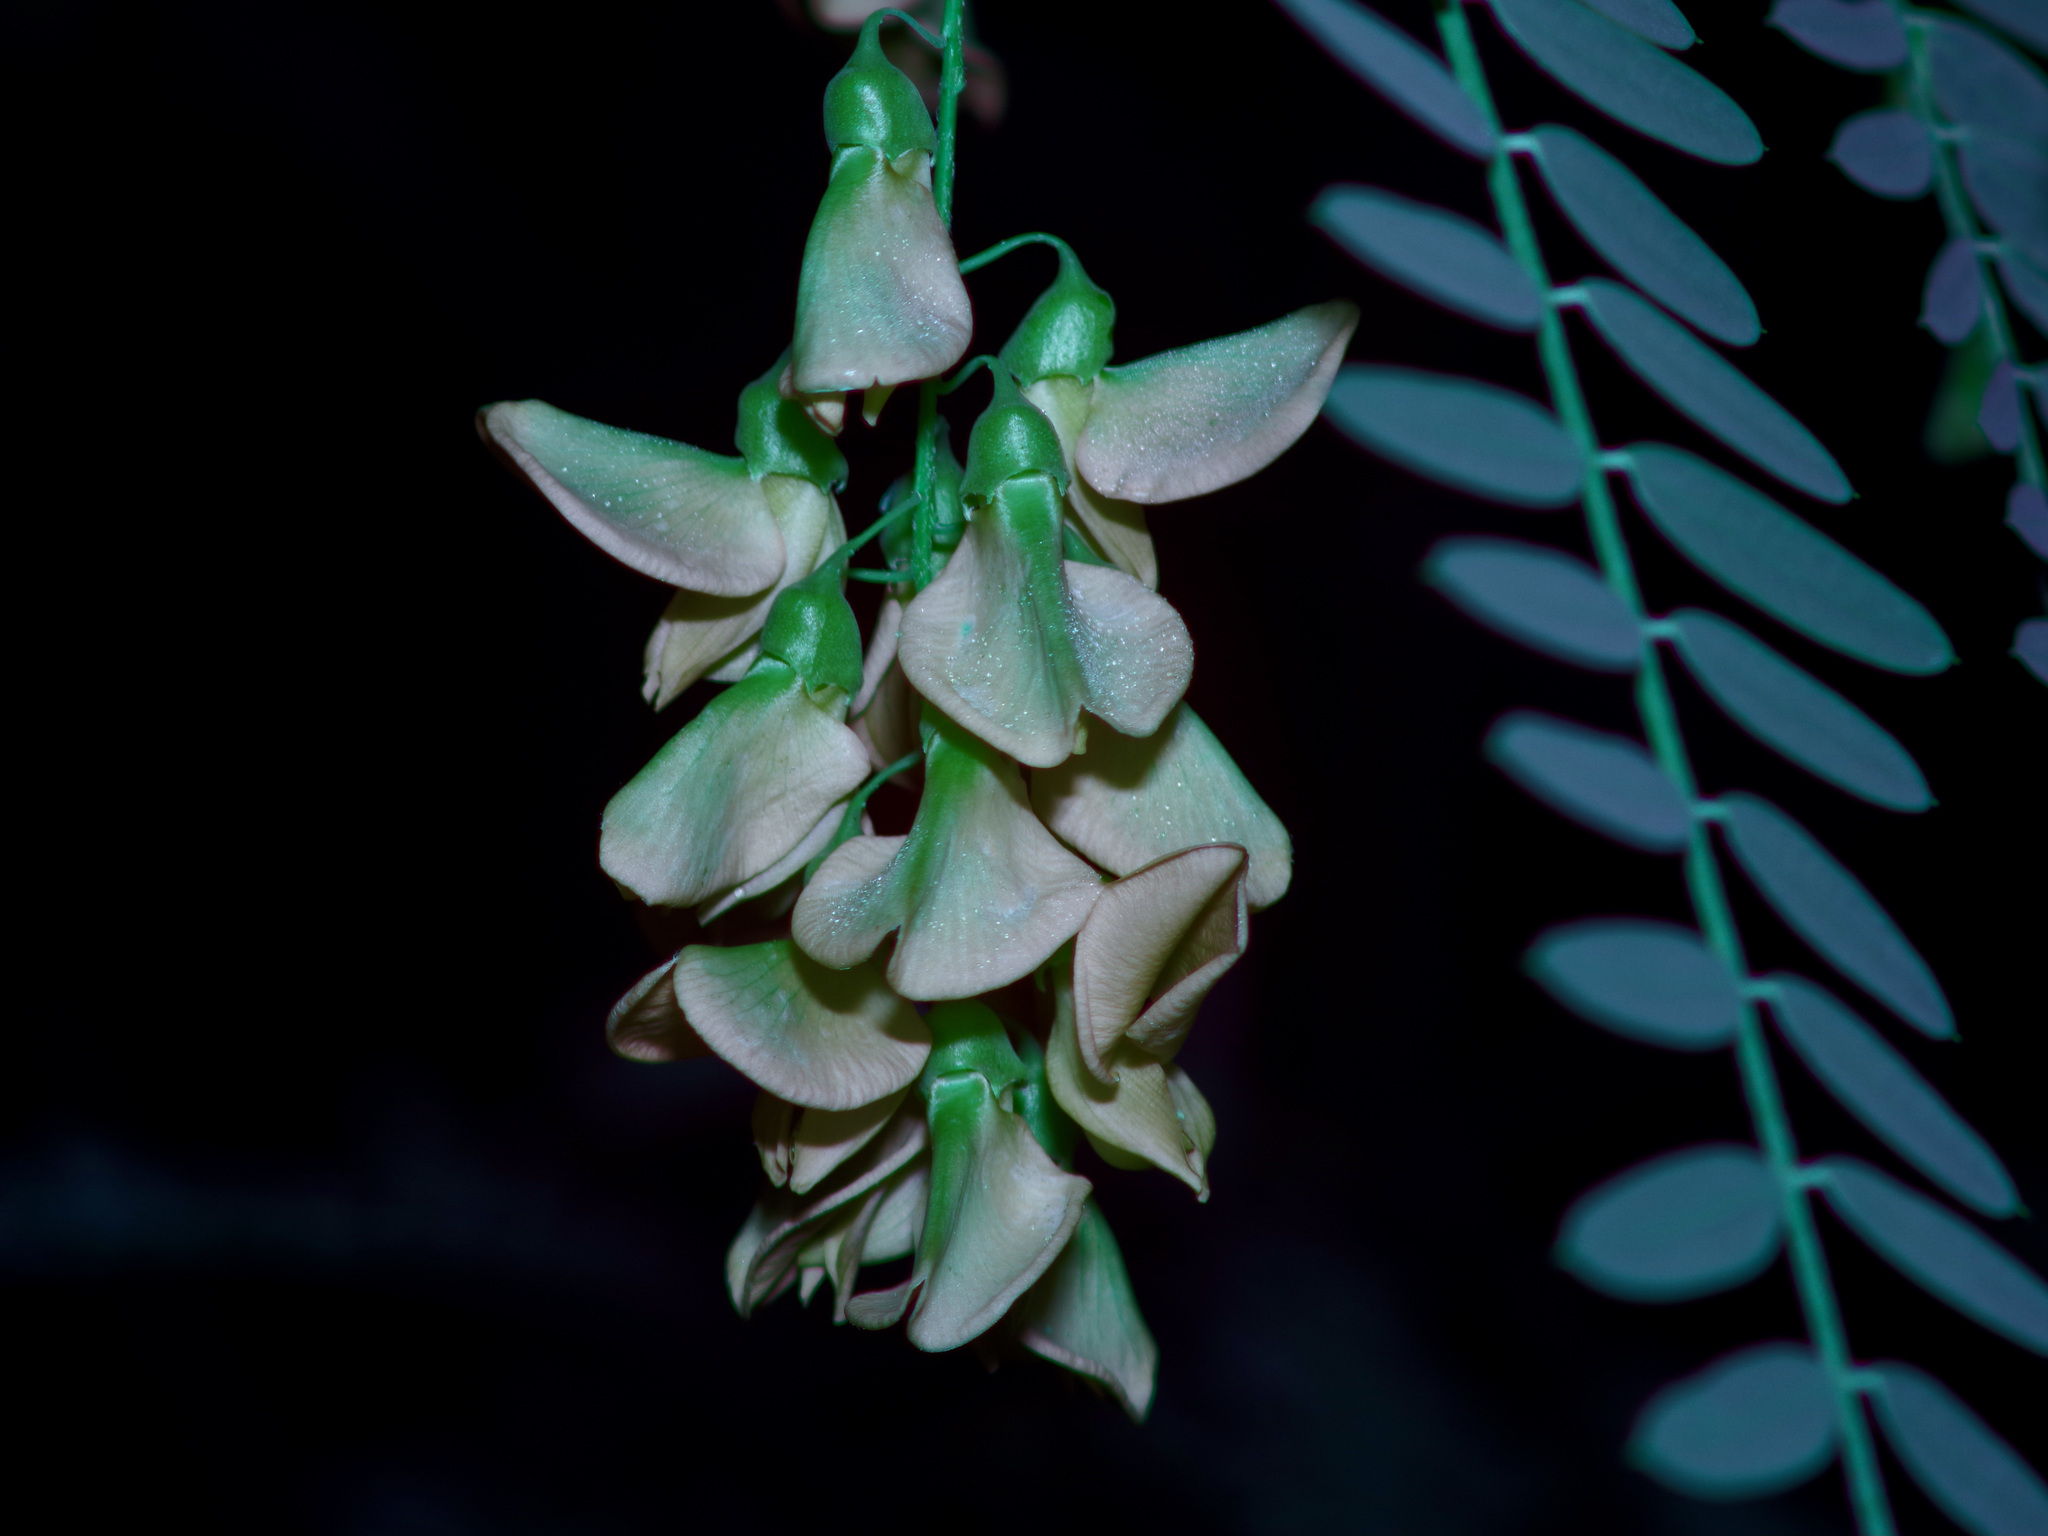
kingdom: Plantae
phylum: Tracheophyta
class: Magnoliopsida
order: Fabales
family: Fabaceae
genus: Sesbania
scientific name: Sesbania drummondii
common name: Poison-bean
